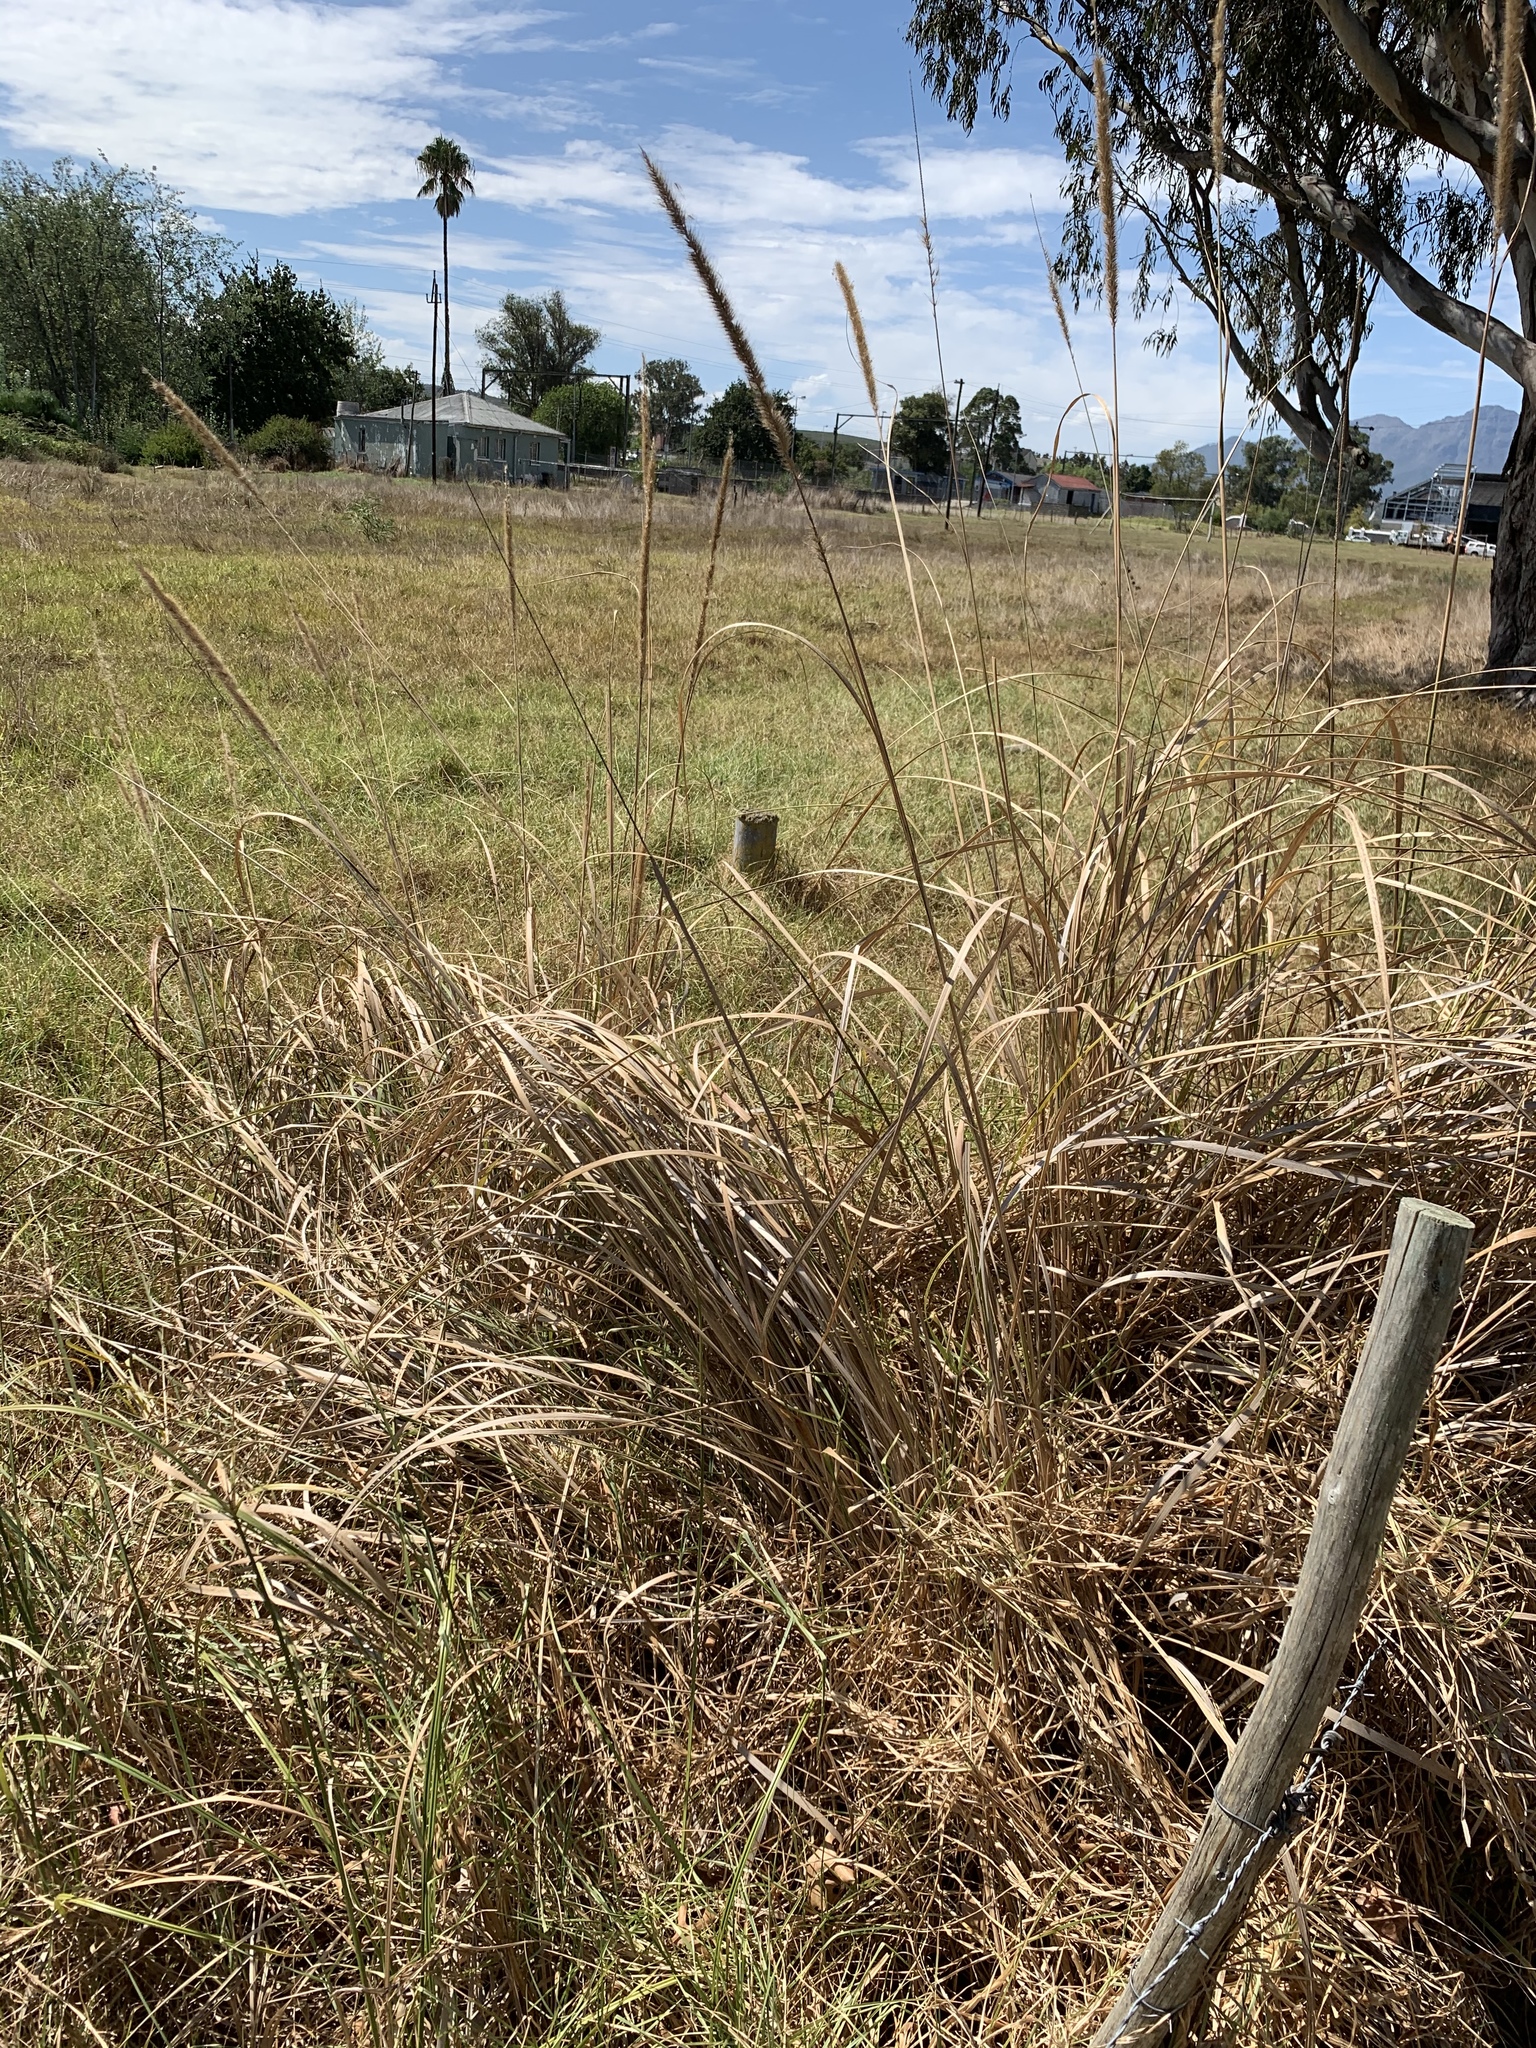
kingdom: Plantae
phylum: Tracheophyta
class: Liliopsida
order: Poales
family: Poaceae
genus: Cenchrus
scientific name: Cenchrus caudatus
